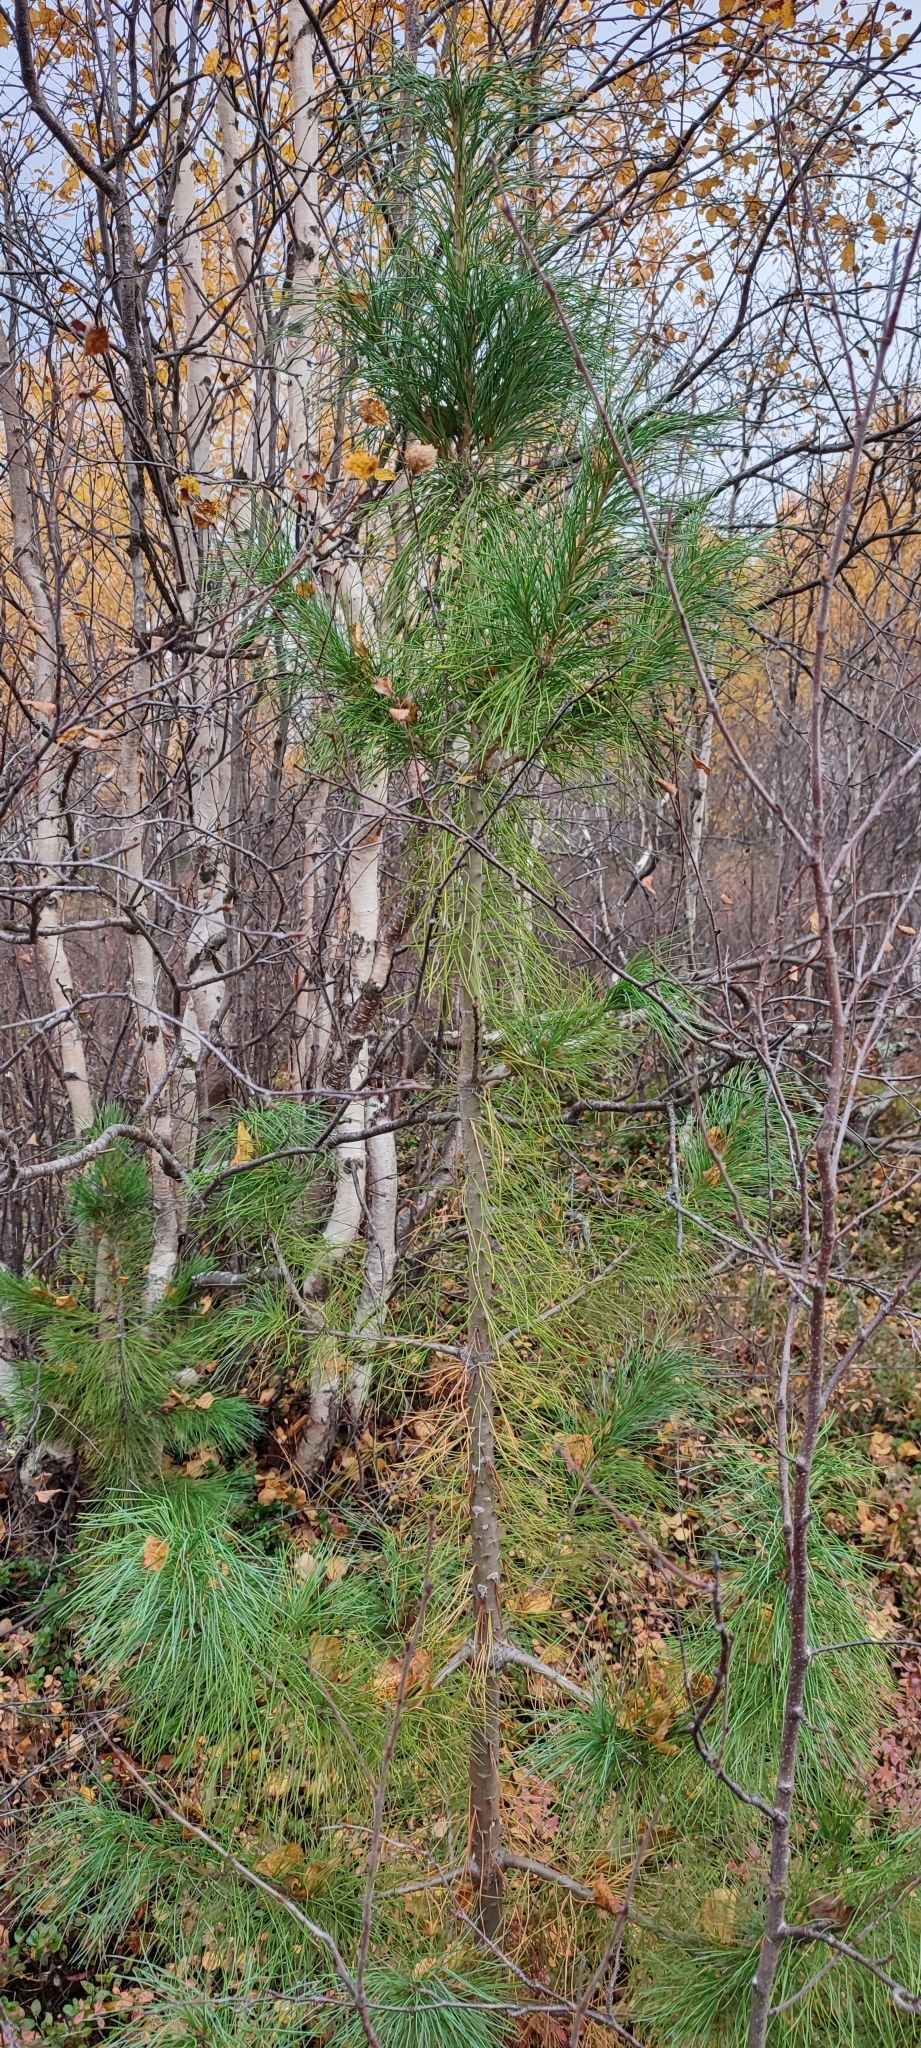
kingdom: Plantae
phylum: Tracheophyta
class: Pinopsida
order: Pinales
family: Pinaceae
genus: Pinus
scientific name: Pinus sibirica
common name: Siberian pine
